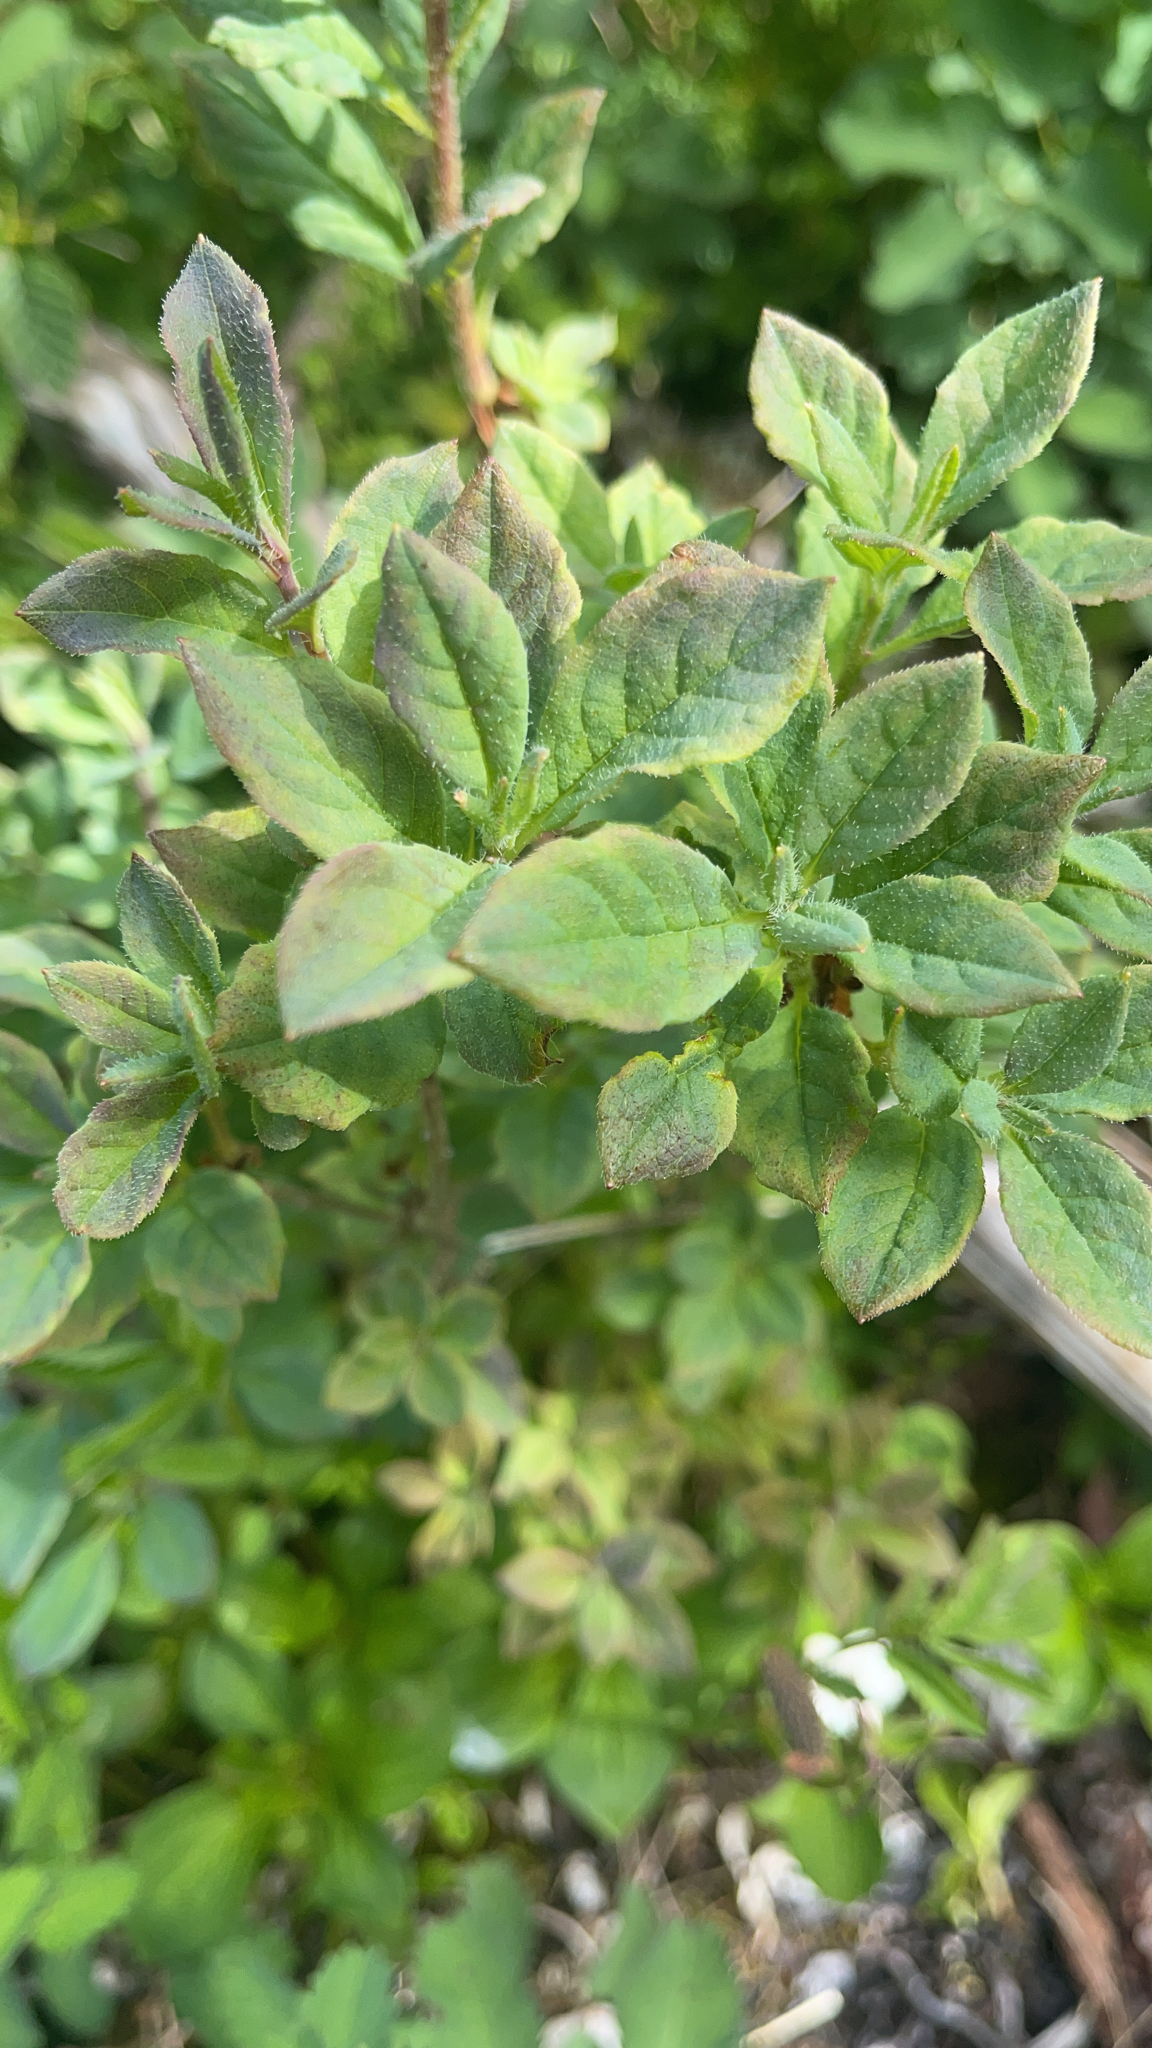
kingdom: Plantae
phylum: Tracheophyta
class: Magnoliopsida
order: Ericales
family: Ericaceae
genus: Rhododendron
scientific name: Rhododendron menziesii
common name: Pacific menziesia
